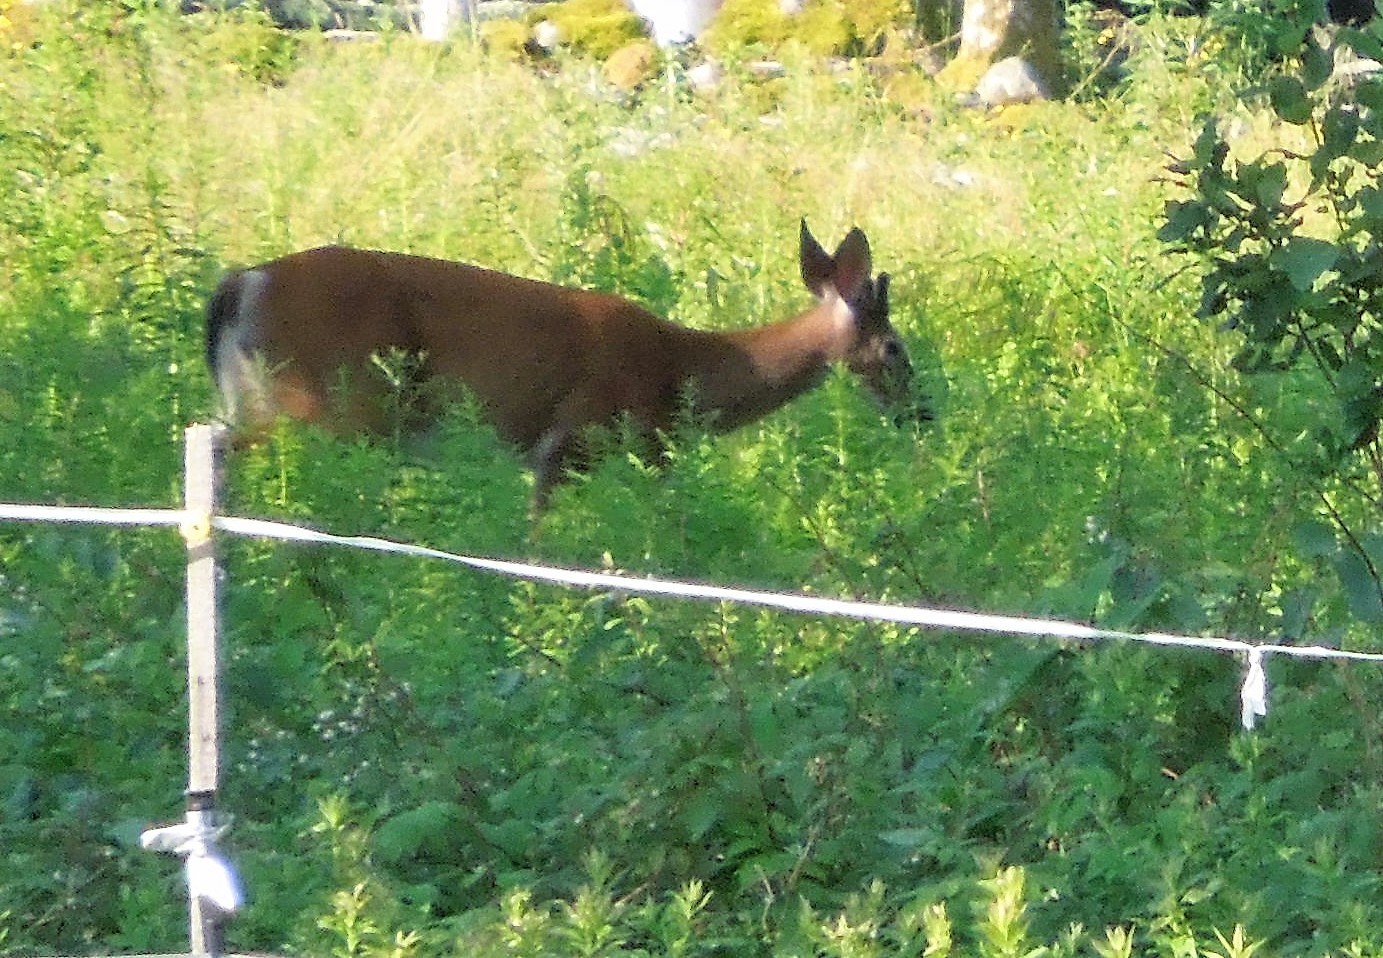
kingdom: Animalia
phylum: Chordata
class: Mammalia
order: Artiodactyla
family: Cervidae
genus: Odocoileus
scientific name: Odocoileus virginianus
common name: White-tailed deer
